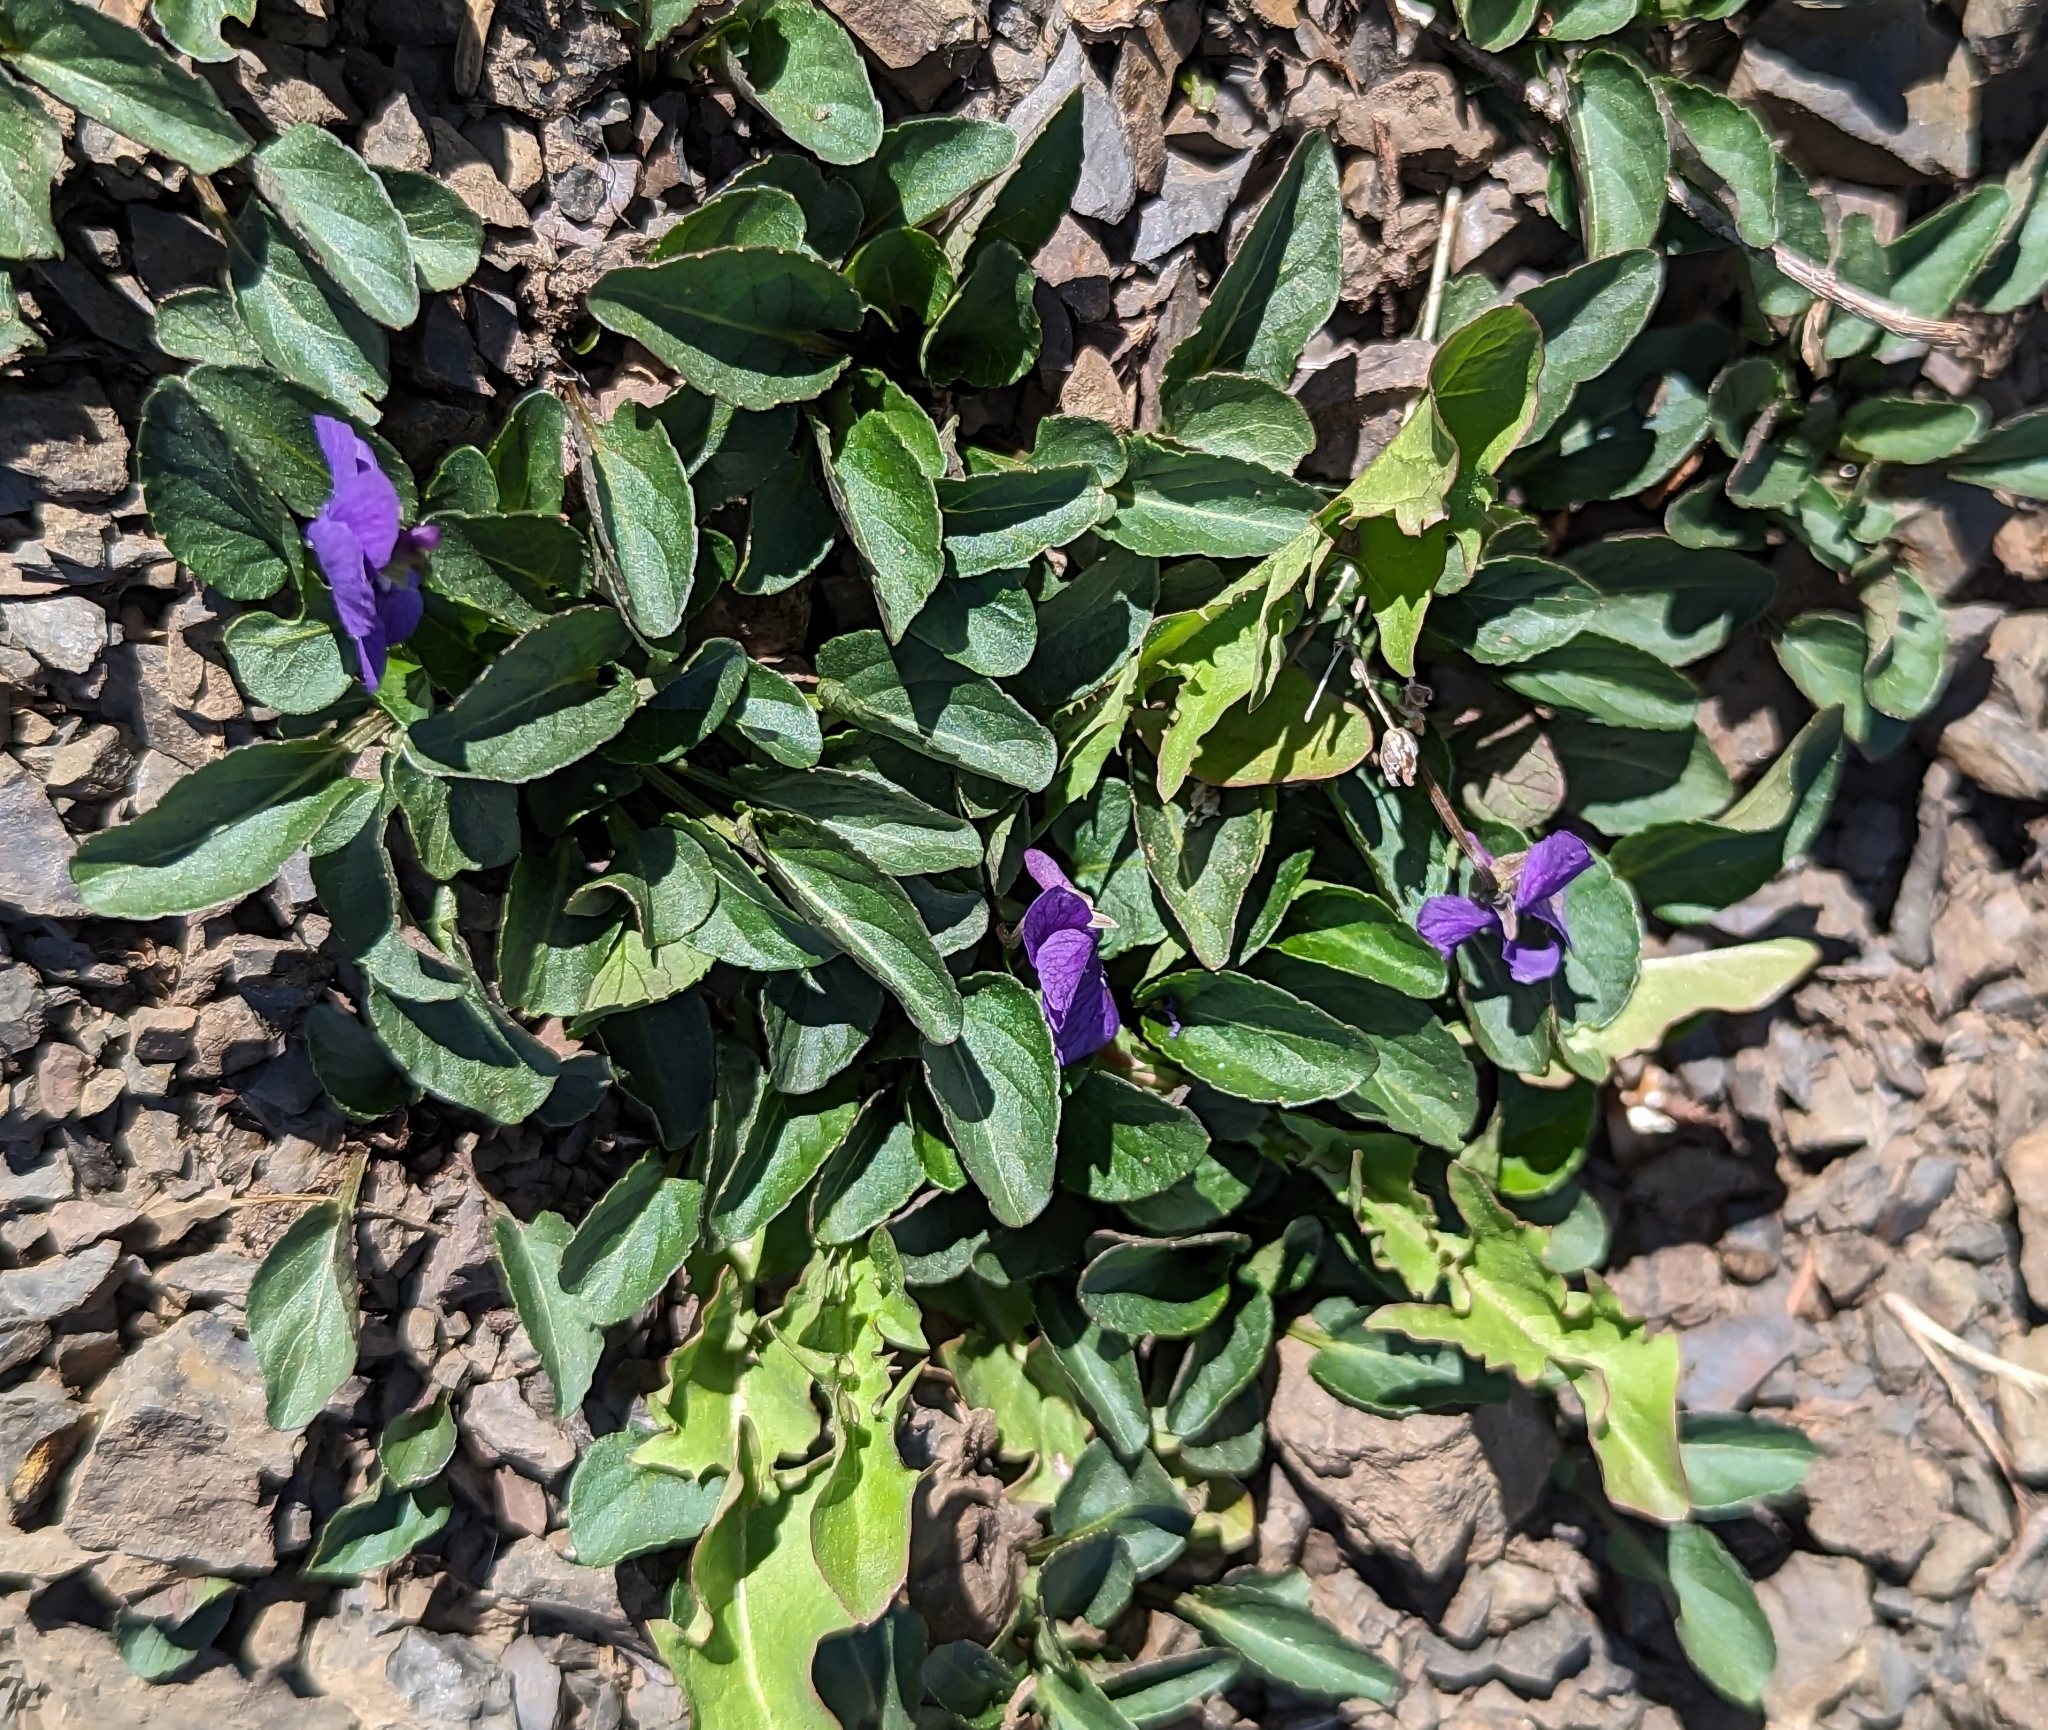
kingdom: Plantae
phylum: Tracheophyta
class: Magnoliopsida
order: Malpighiales
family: Violaceae
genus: Viola
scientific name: Viola adunca
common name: Sand violet
